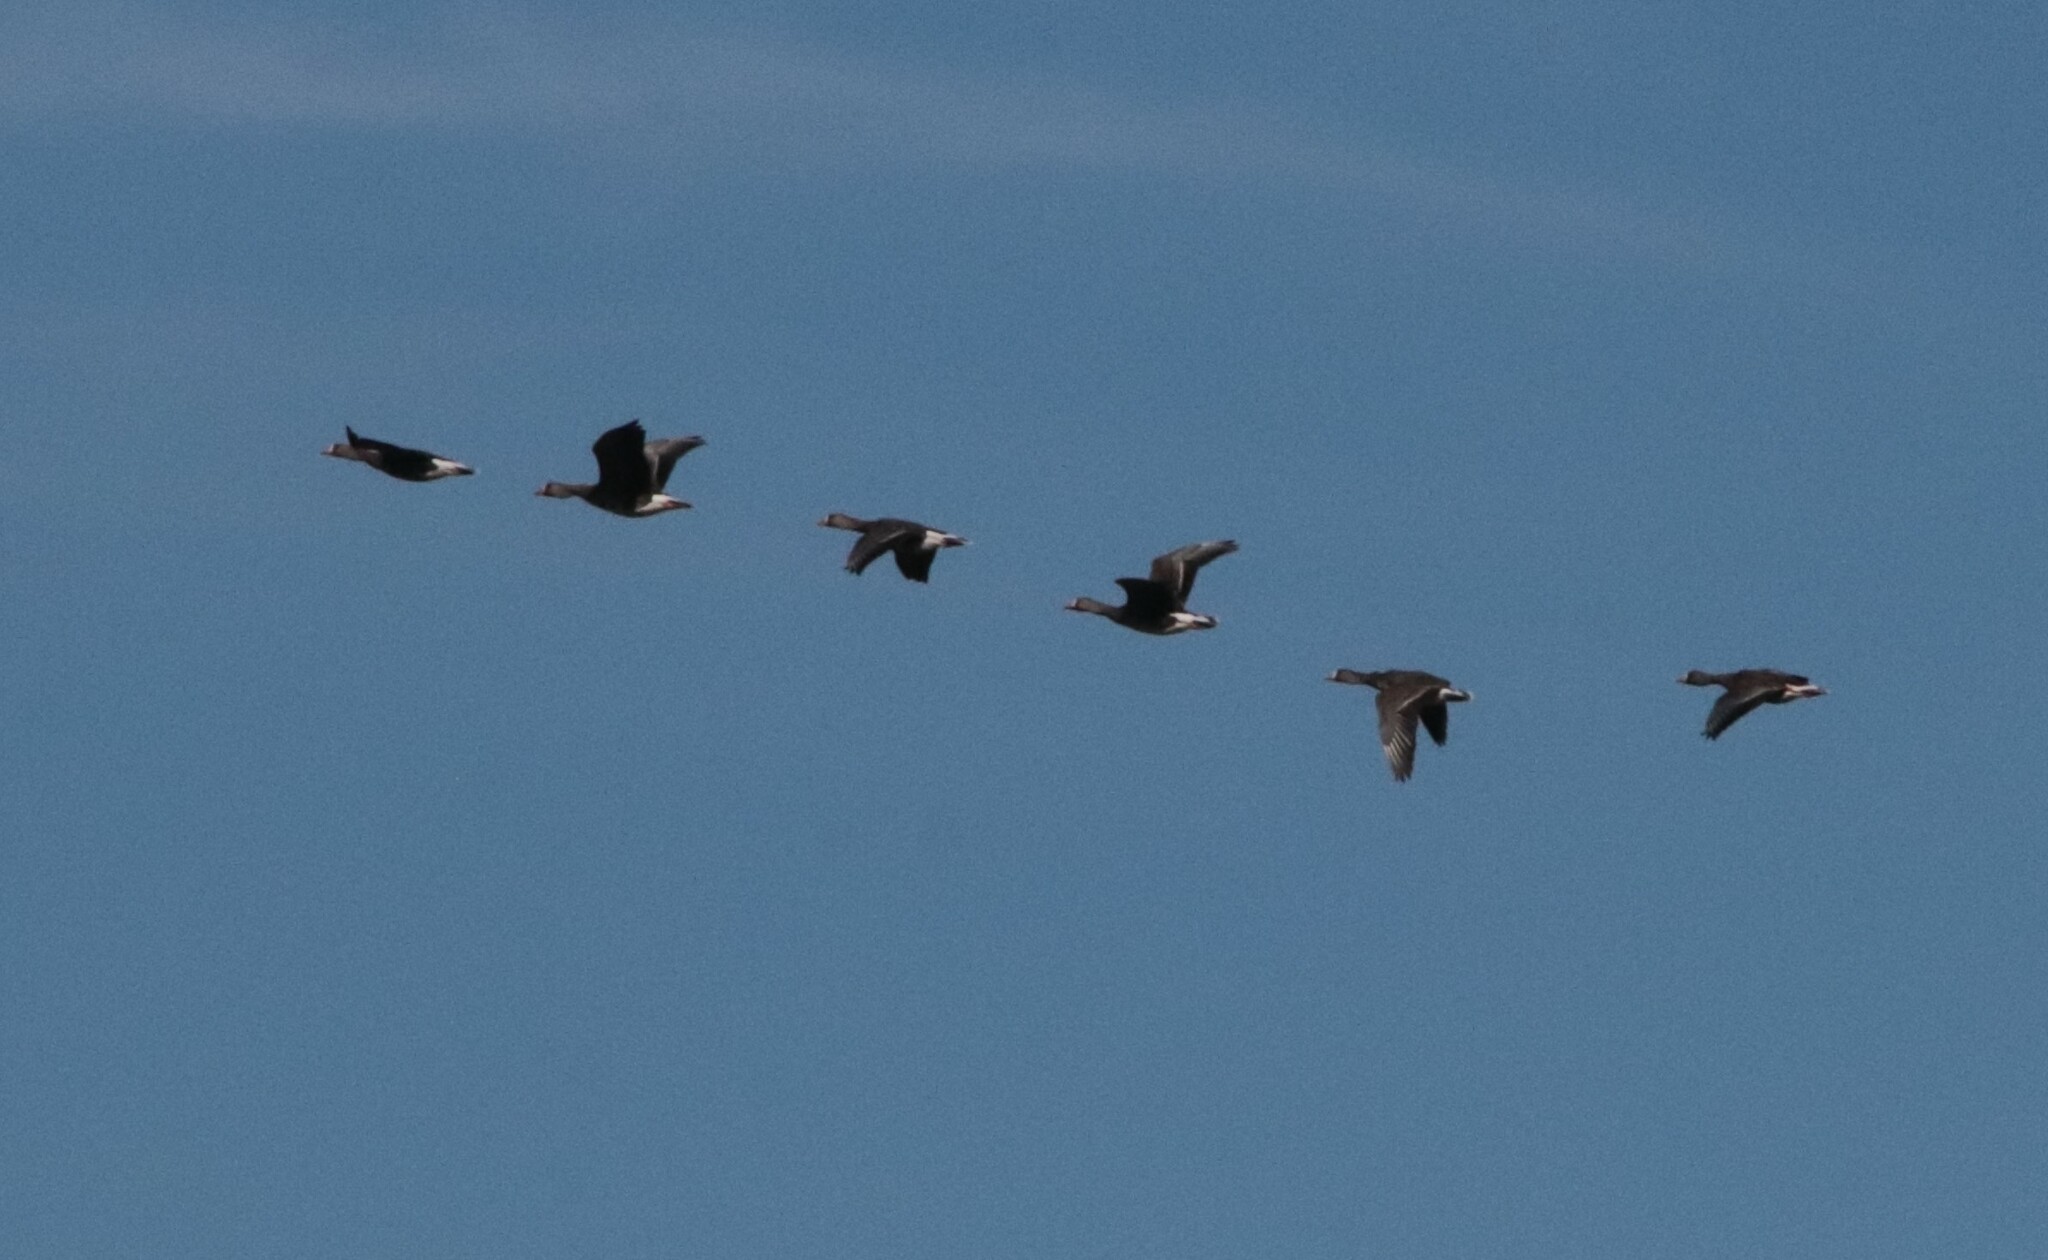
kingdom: Animalia
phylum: Chordata
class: Aves
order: Anseriformes
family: Anatidae
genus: Anser
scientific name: Anser albifrons
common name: Greater white-fronted goose
